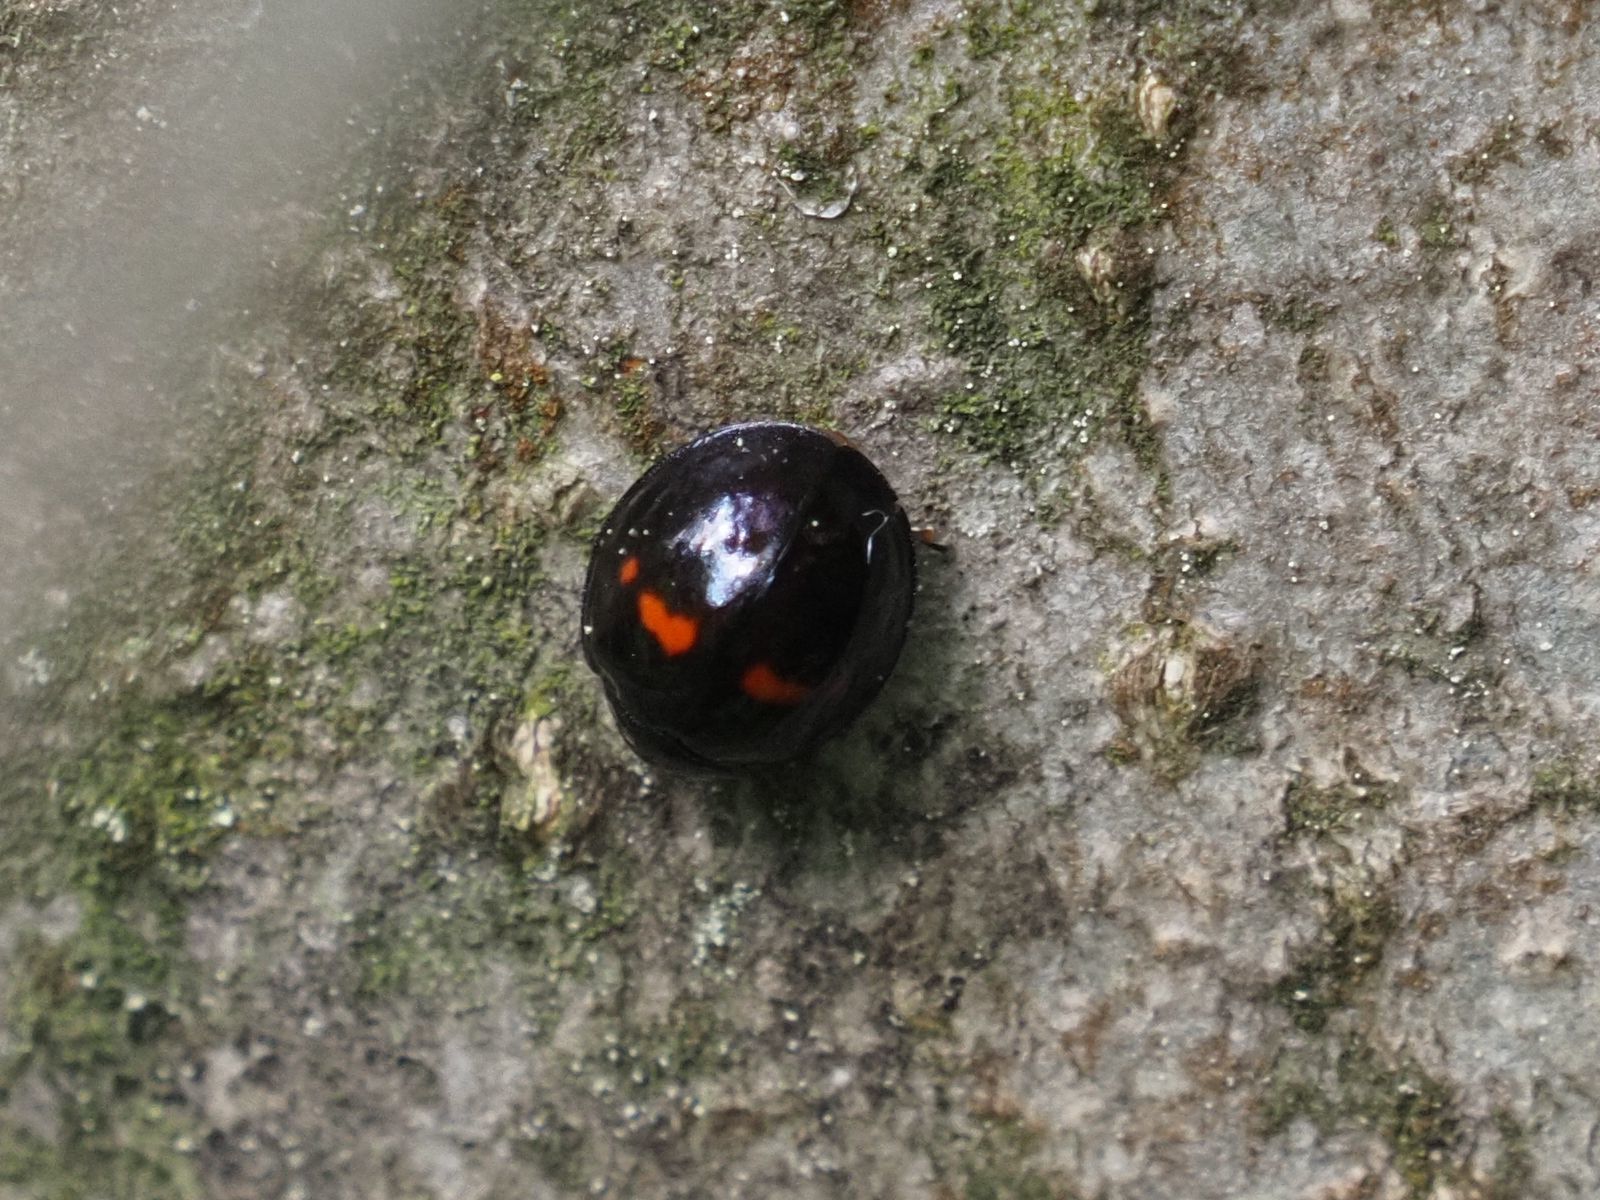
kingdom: Animalia
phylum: Arthropoda
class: Insecta
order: Coleoptera
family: Coccinellidae
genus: Chilocorus
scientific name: Chilocorus bipustulatus
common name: Heather ladybird
